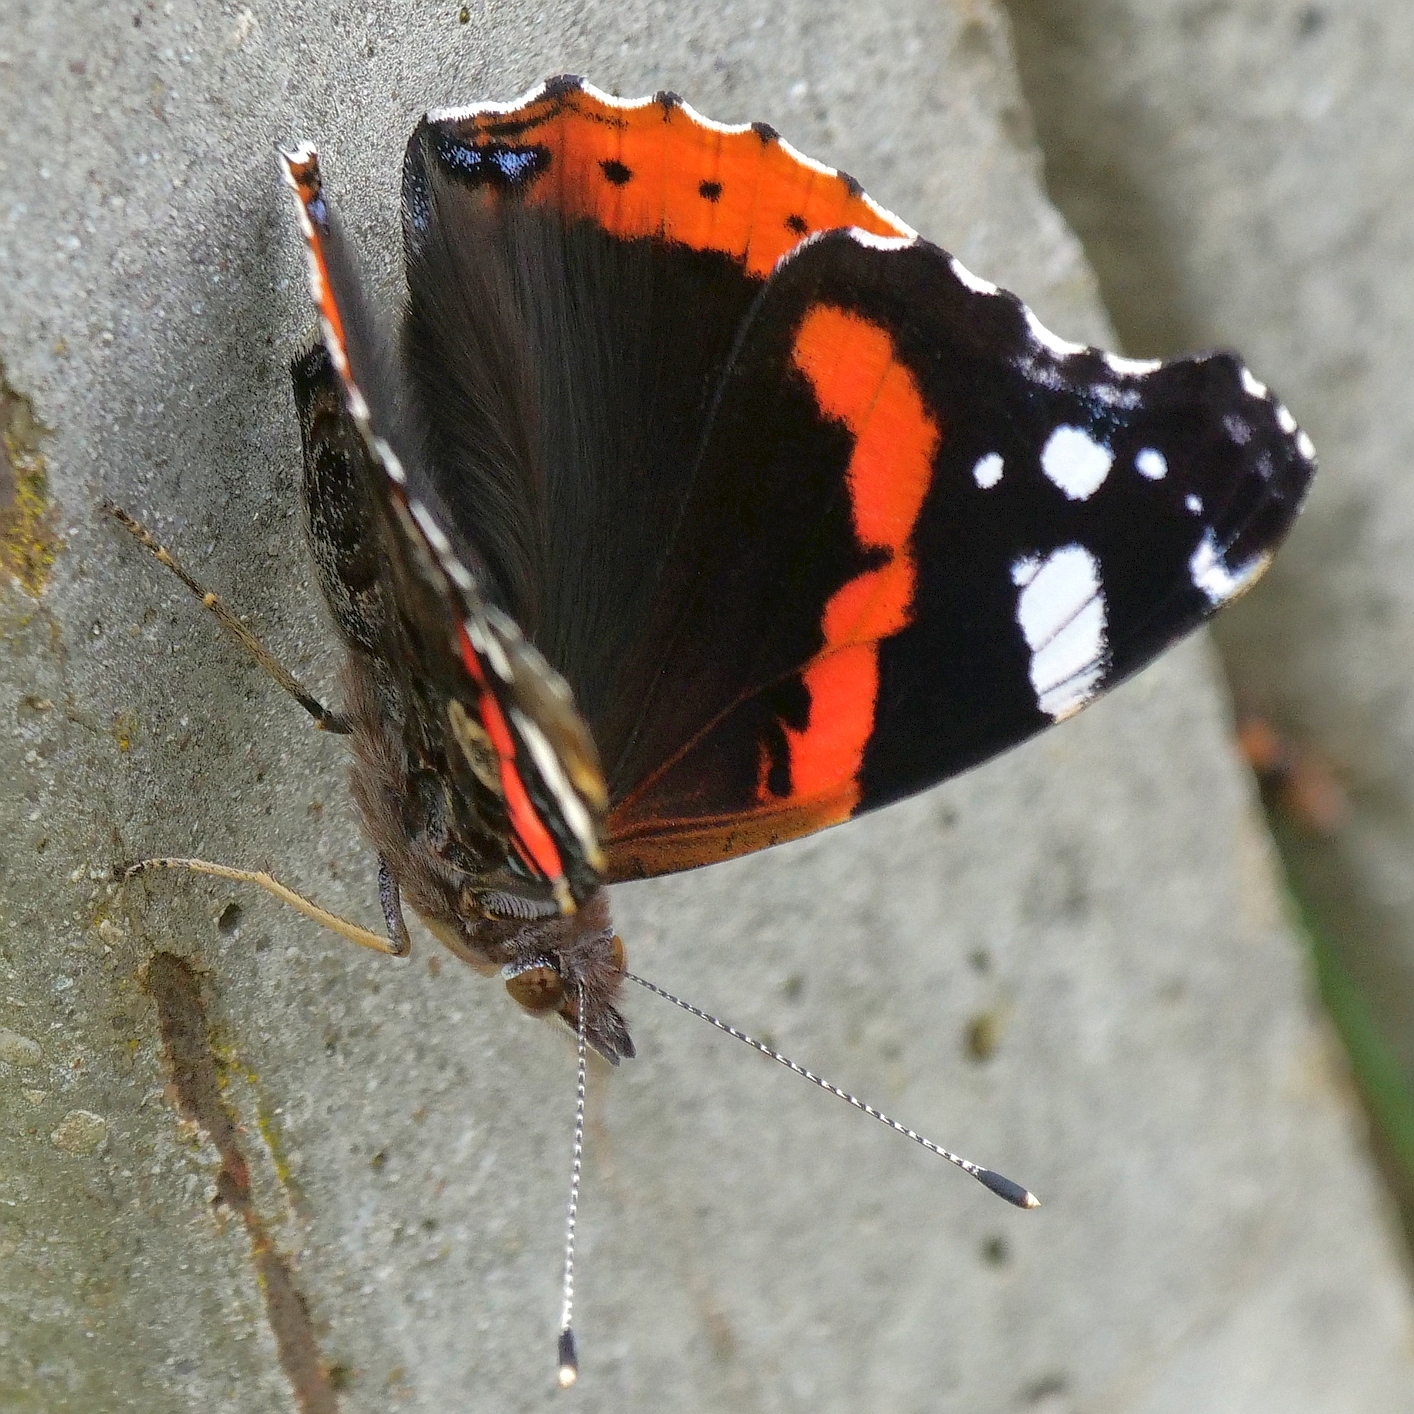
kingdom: Animalia
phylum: Arthropoda
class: Insecta
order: Lepidoptera
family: Nymphalidae
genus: Vanessa
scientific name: Vanessa atalanta
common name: Red admiral
